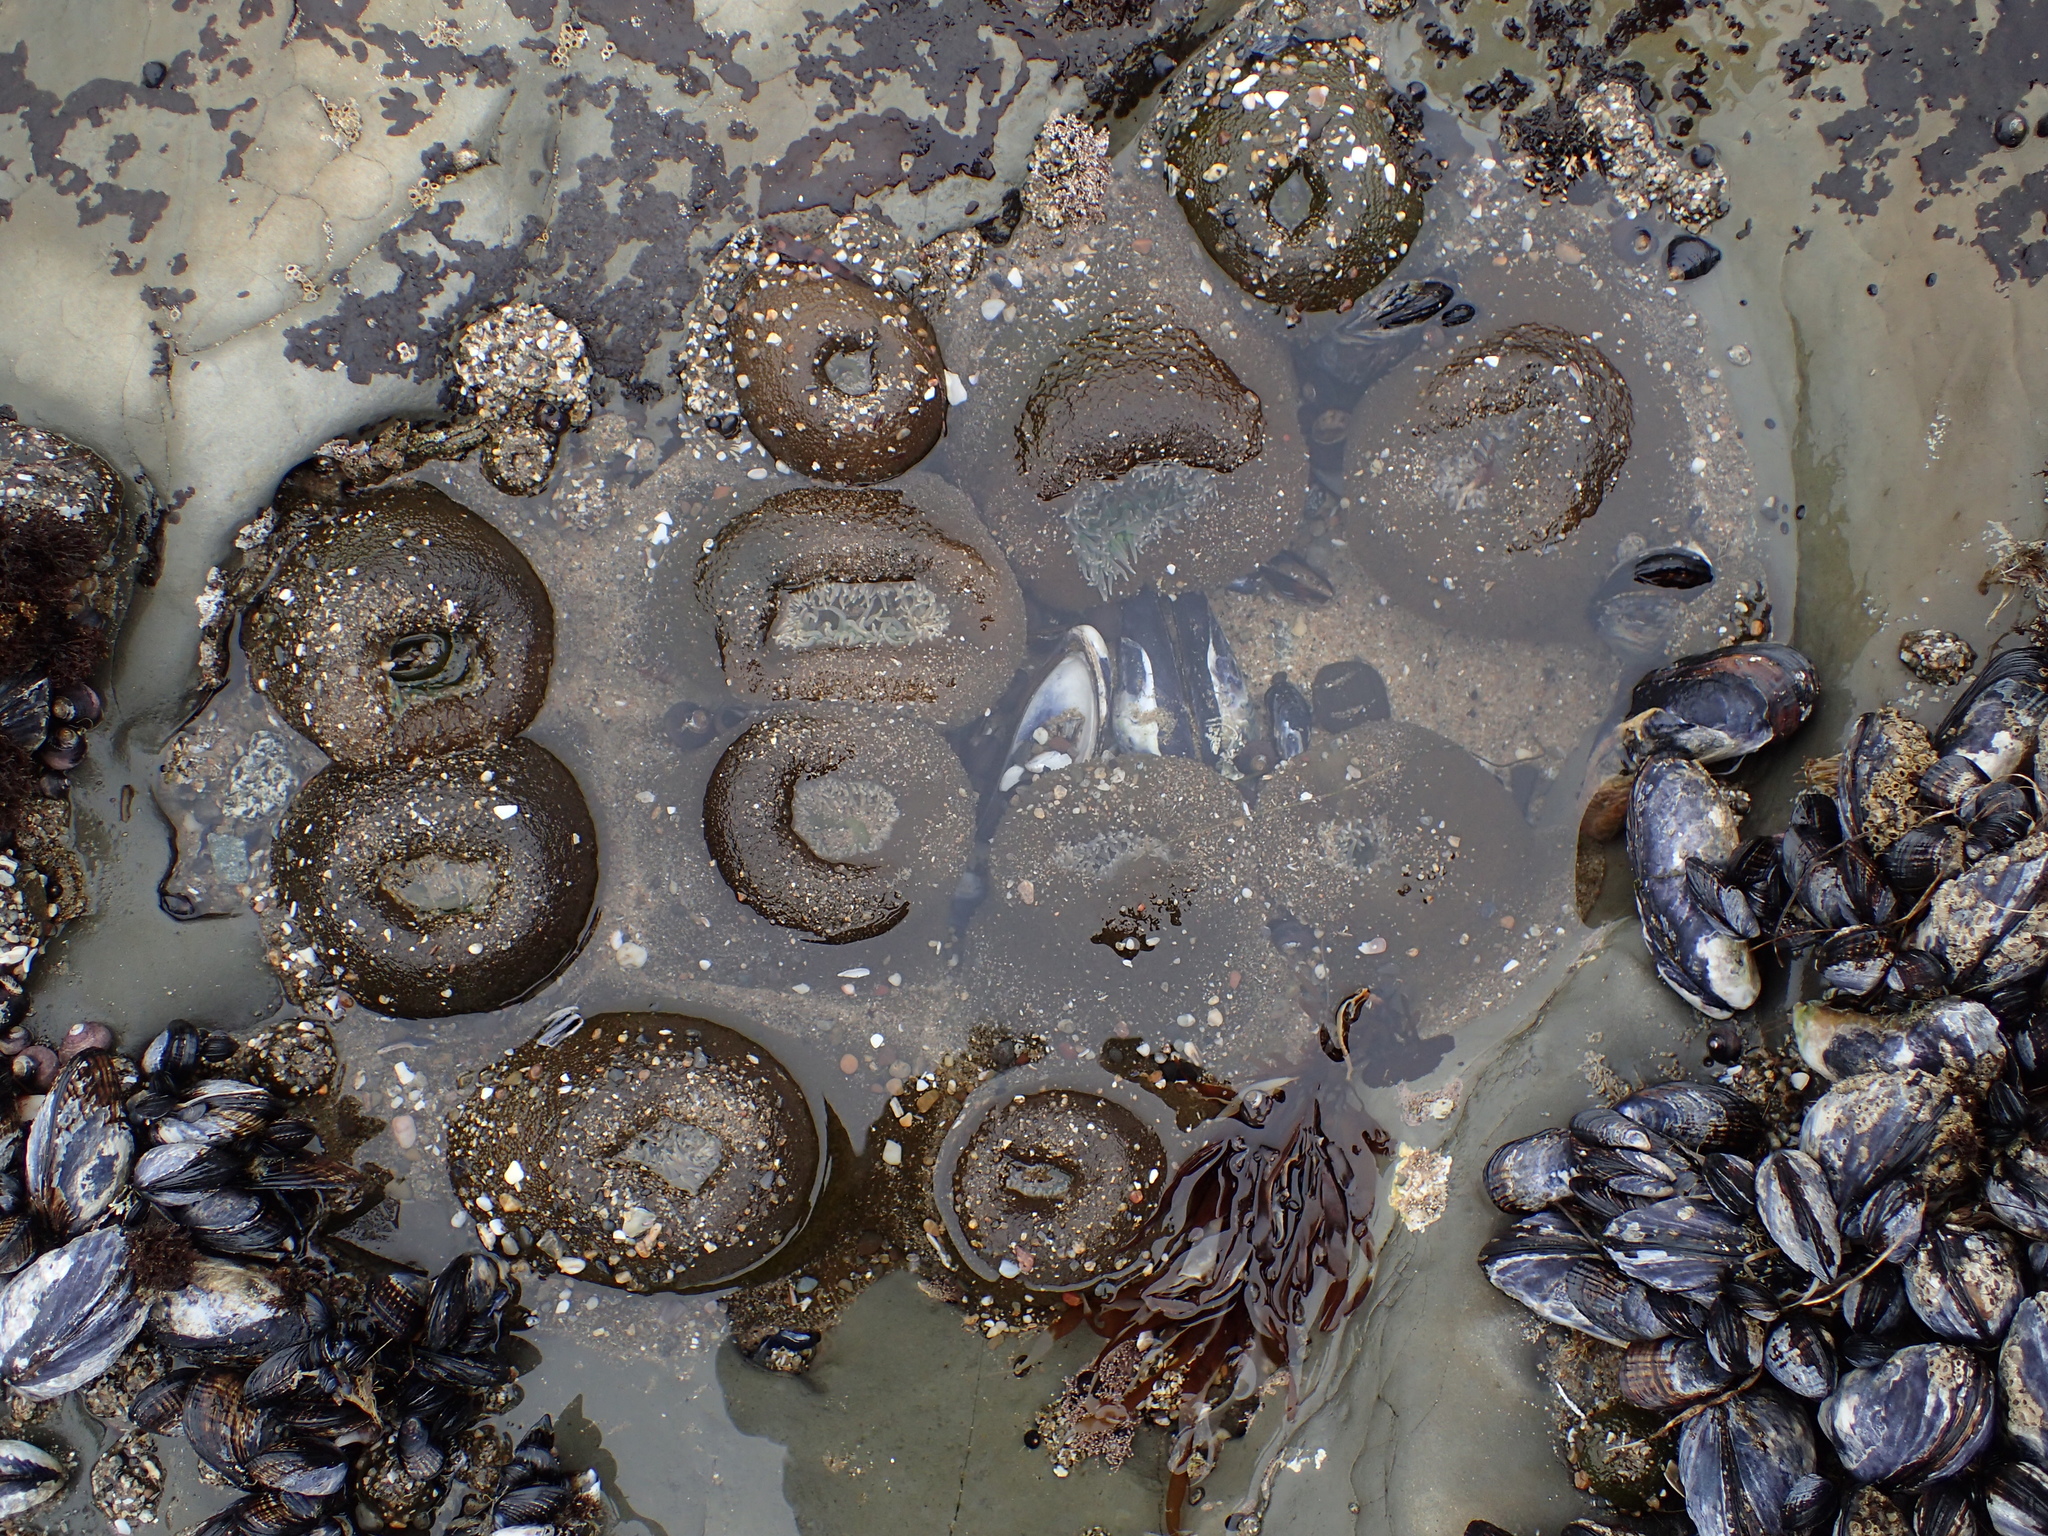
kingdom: Animalia
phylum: Cnidaria
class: Anthozoa
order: Actiniaria
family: Actiniidae
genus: Anthopleura
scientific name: Anthopleura xanthogrammica
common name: Giant green anemone
